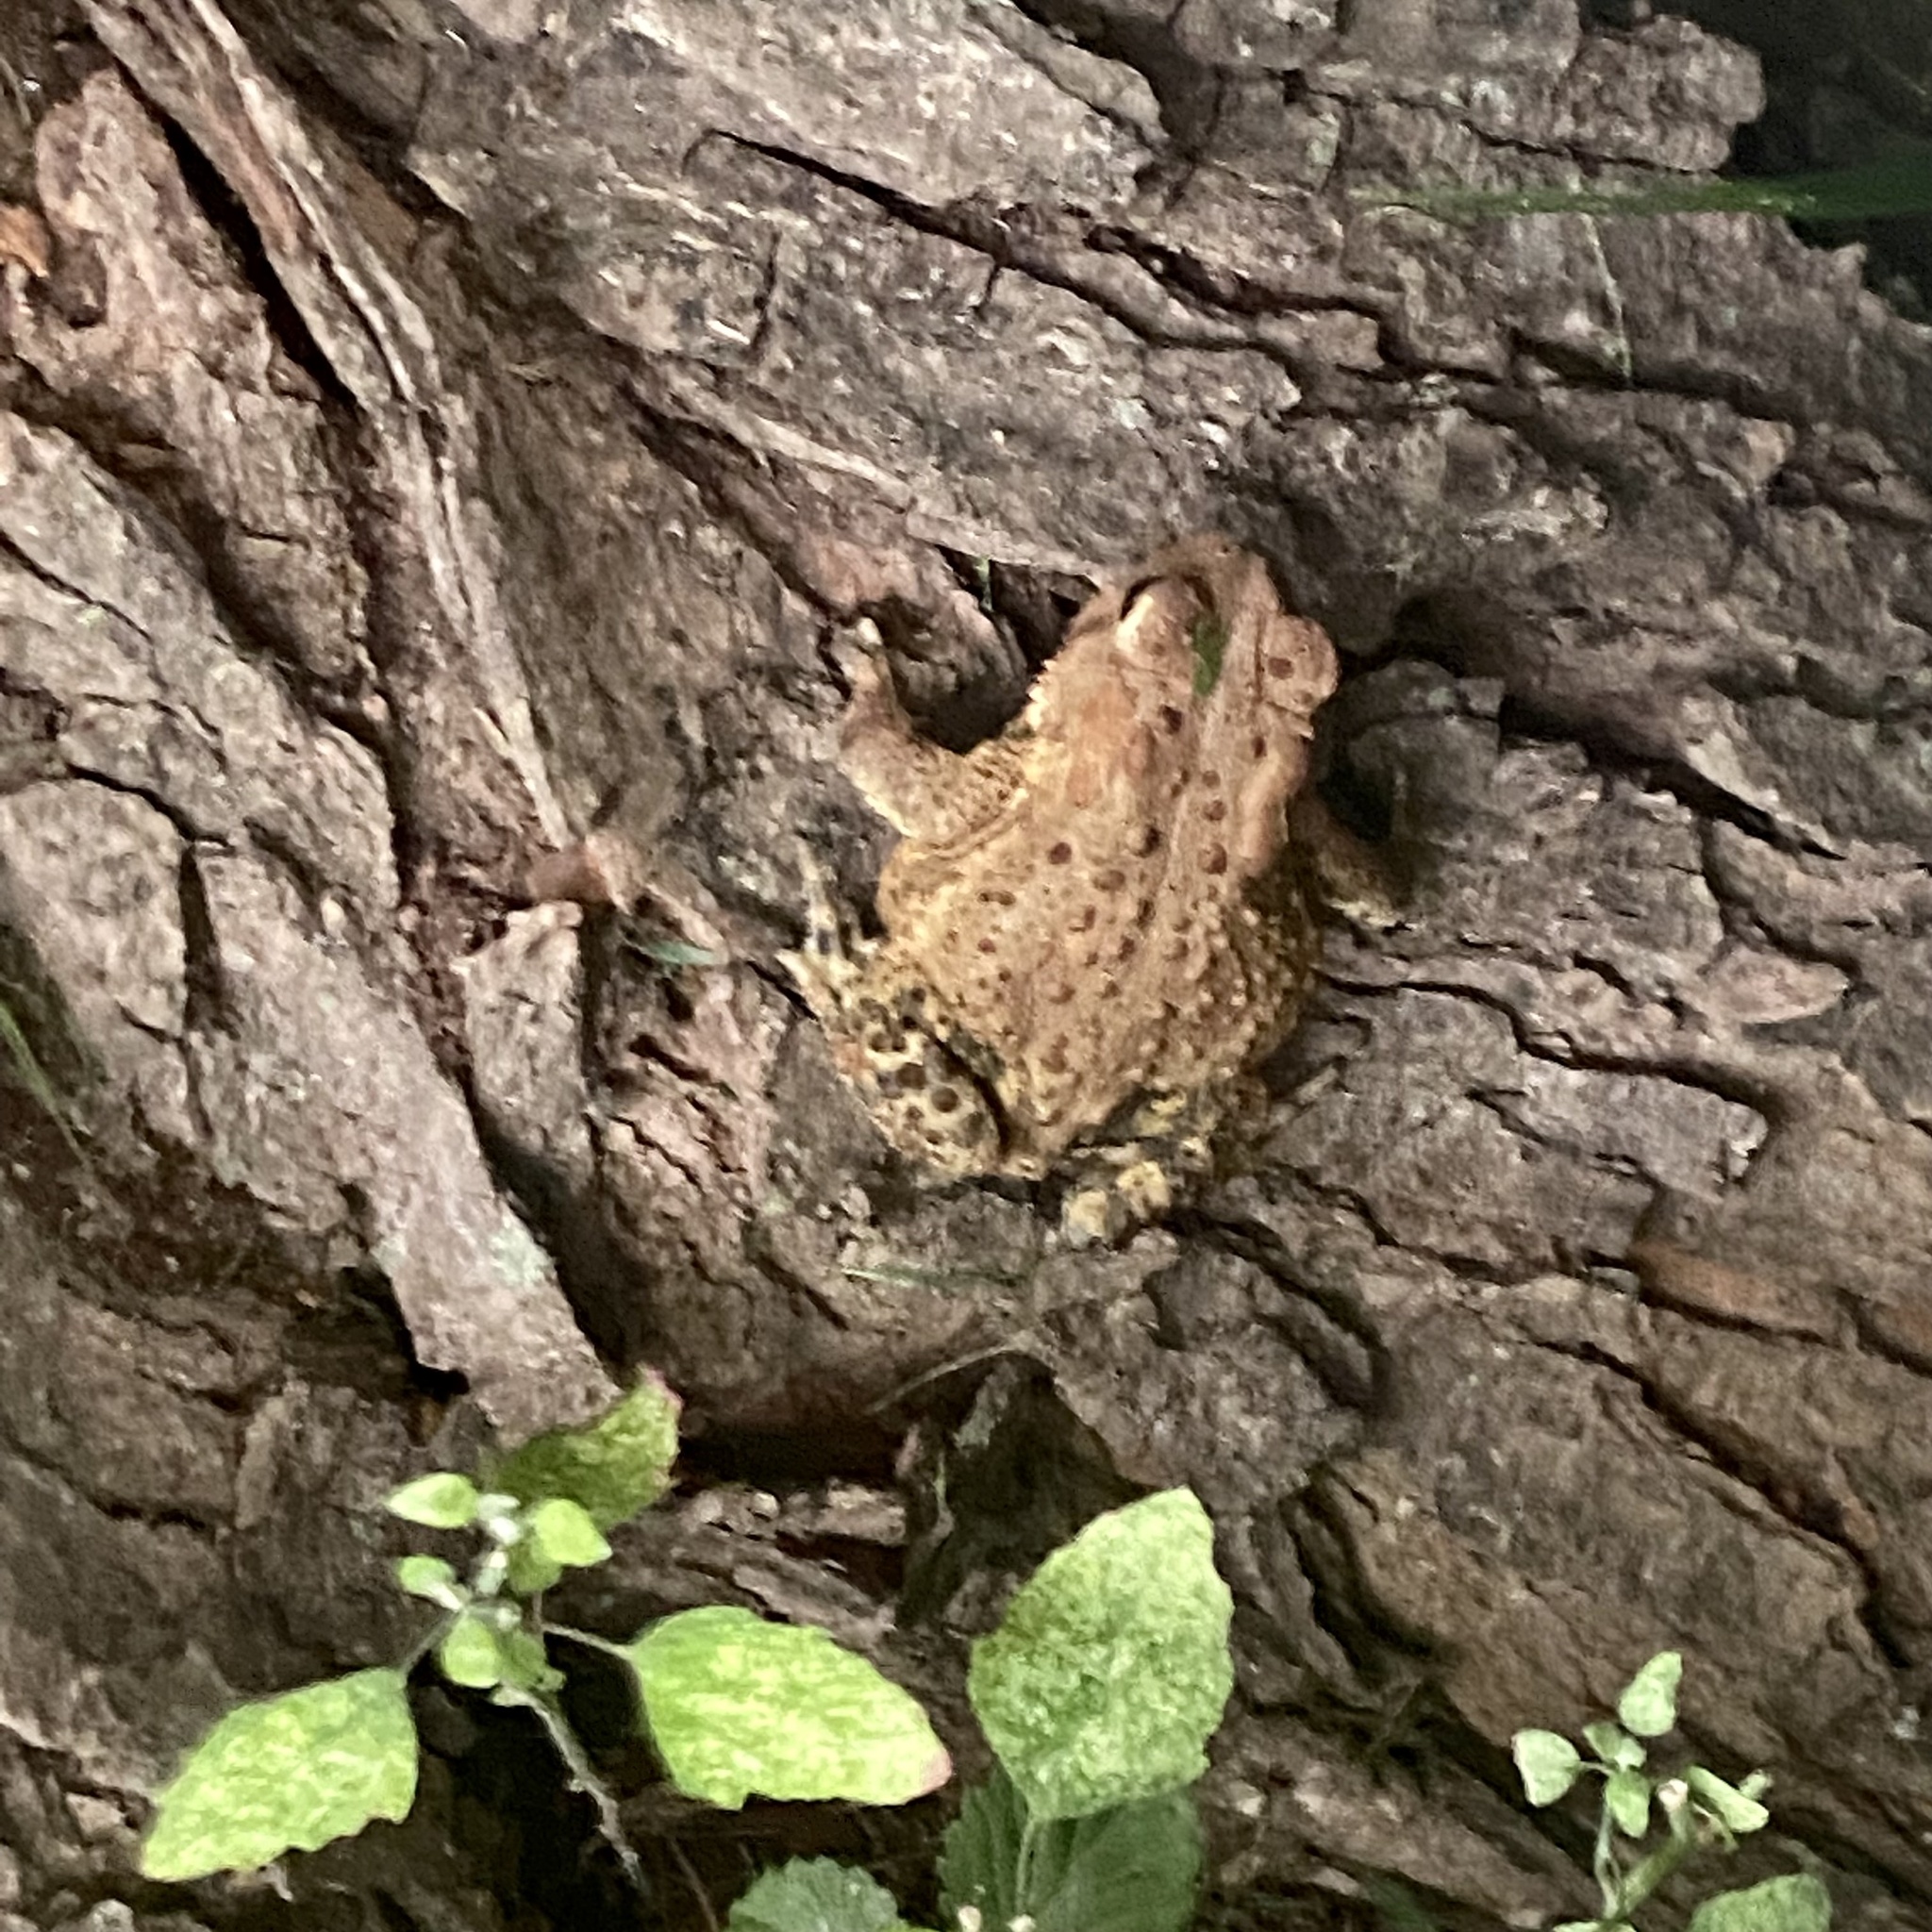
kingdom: Animalia
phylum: Chordata
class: Amphibia
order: Anura
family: Bufonidae
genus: Anaxyrus
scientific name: Anaxyrus americanus
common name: American toad
